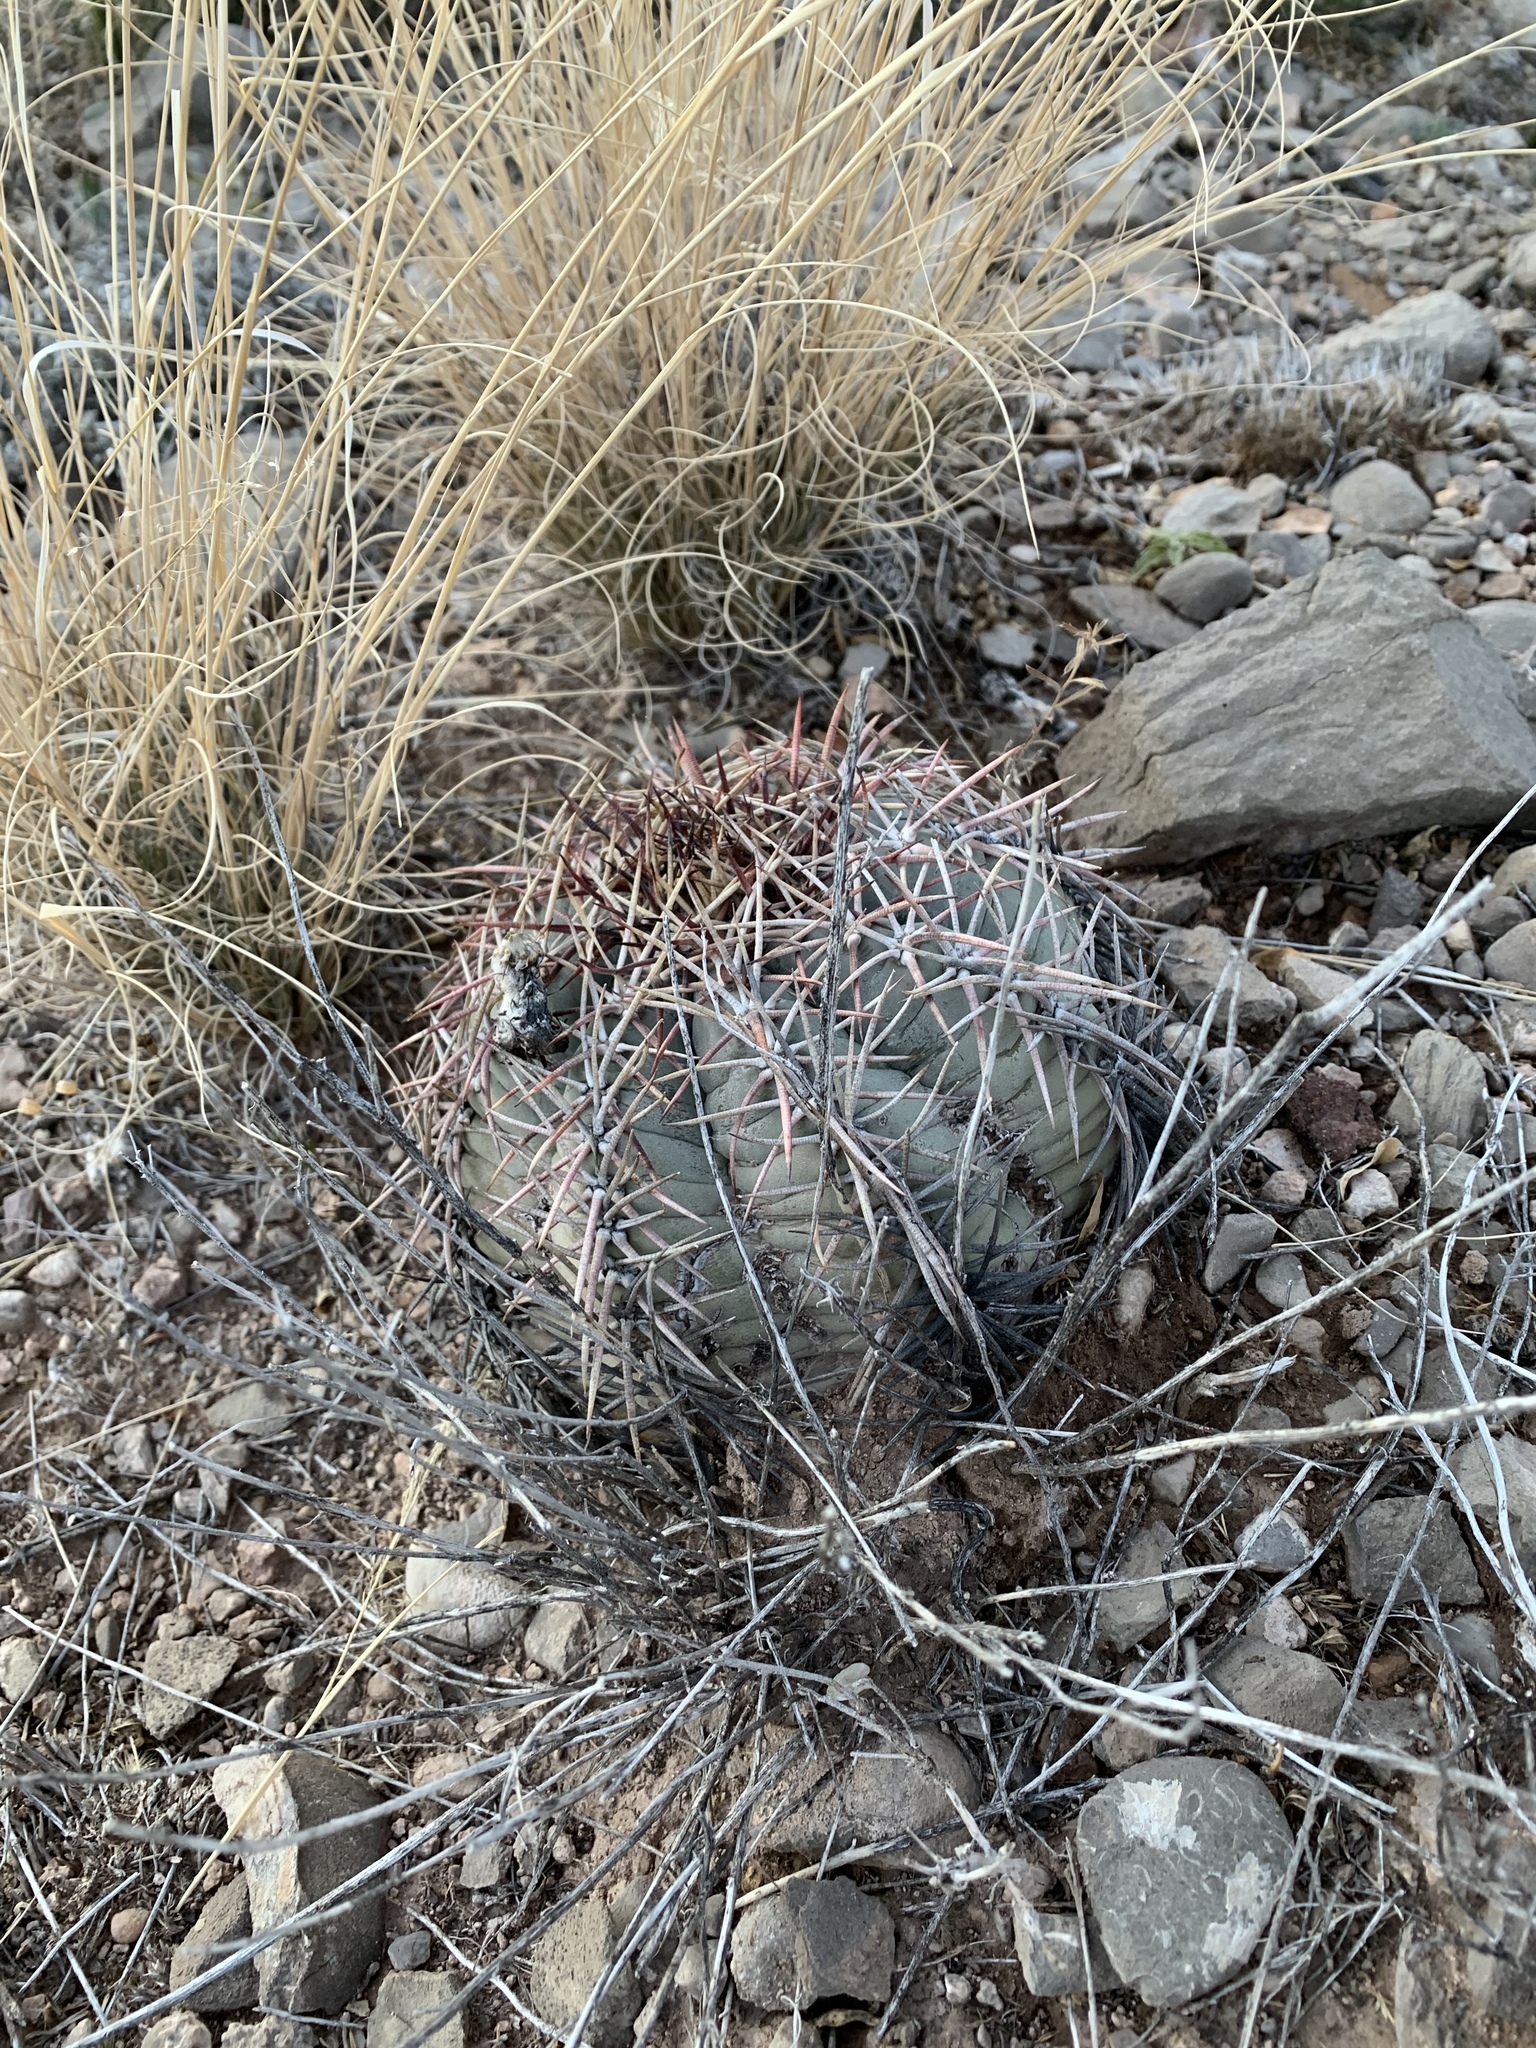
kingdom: Plantae
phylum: Tracheophyta
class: Magnoliopsida
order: Caryophyllales
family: Cactaceae
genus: Echinocactus
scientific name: Echinocactus horizonthalonius
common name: Devilshead
